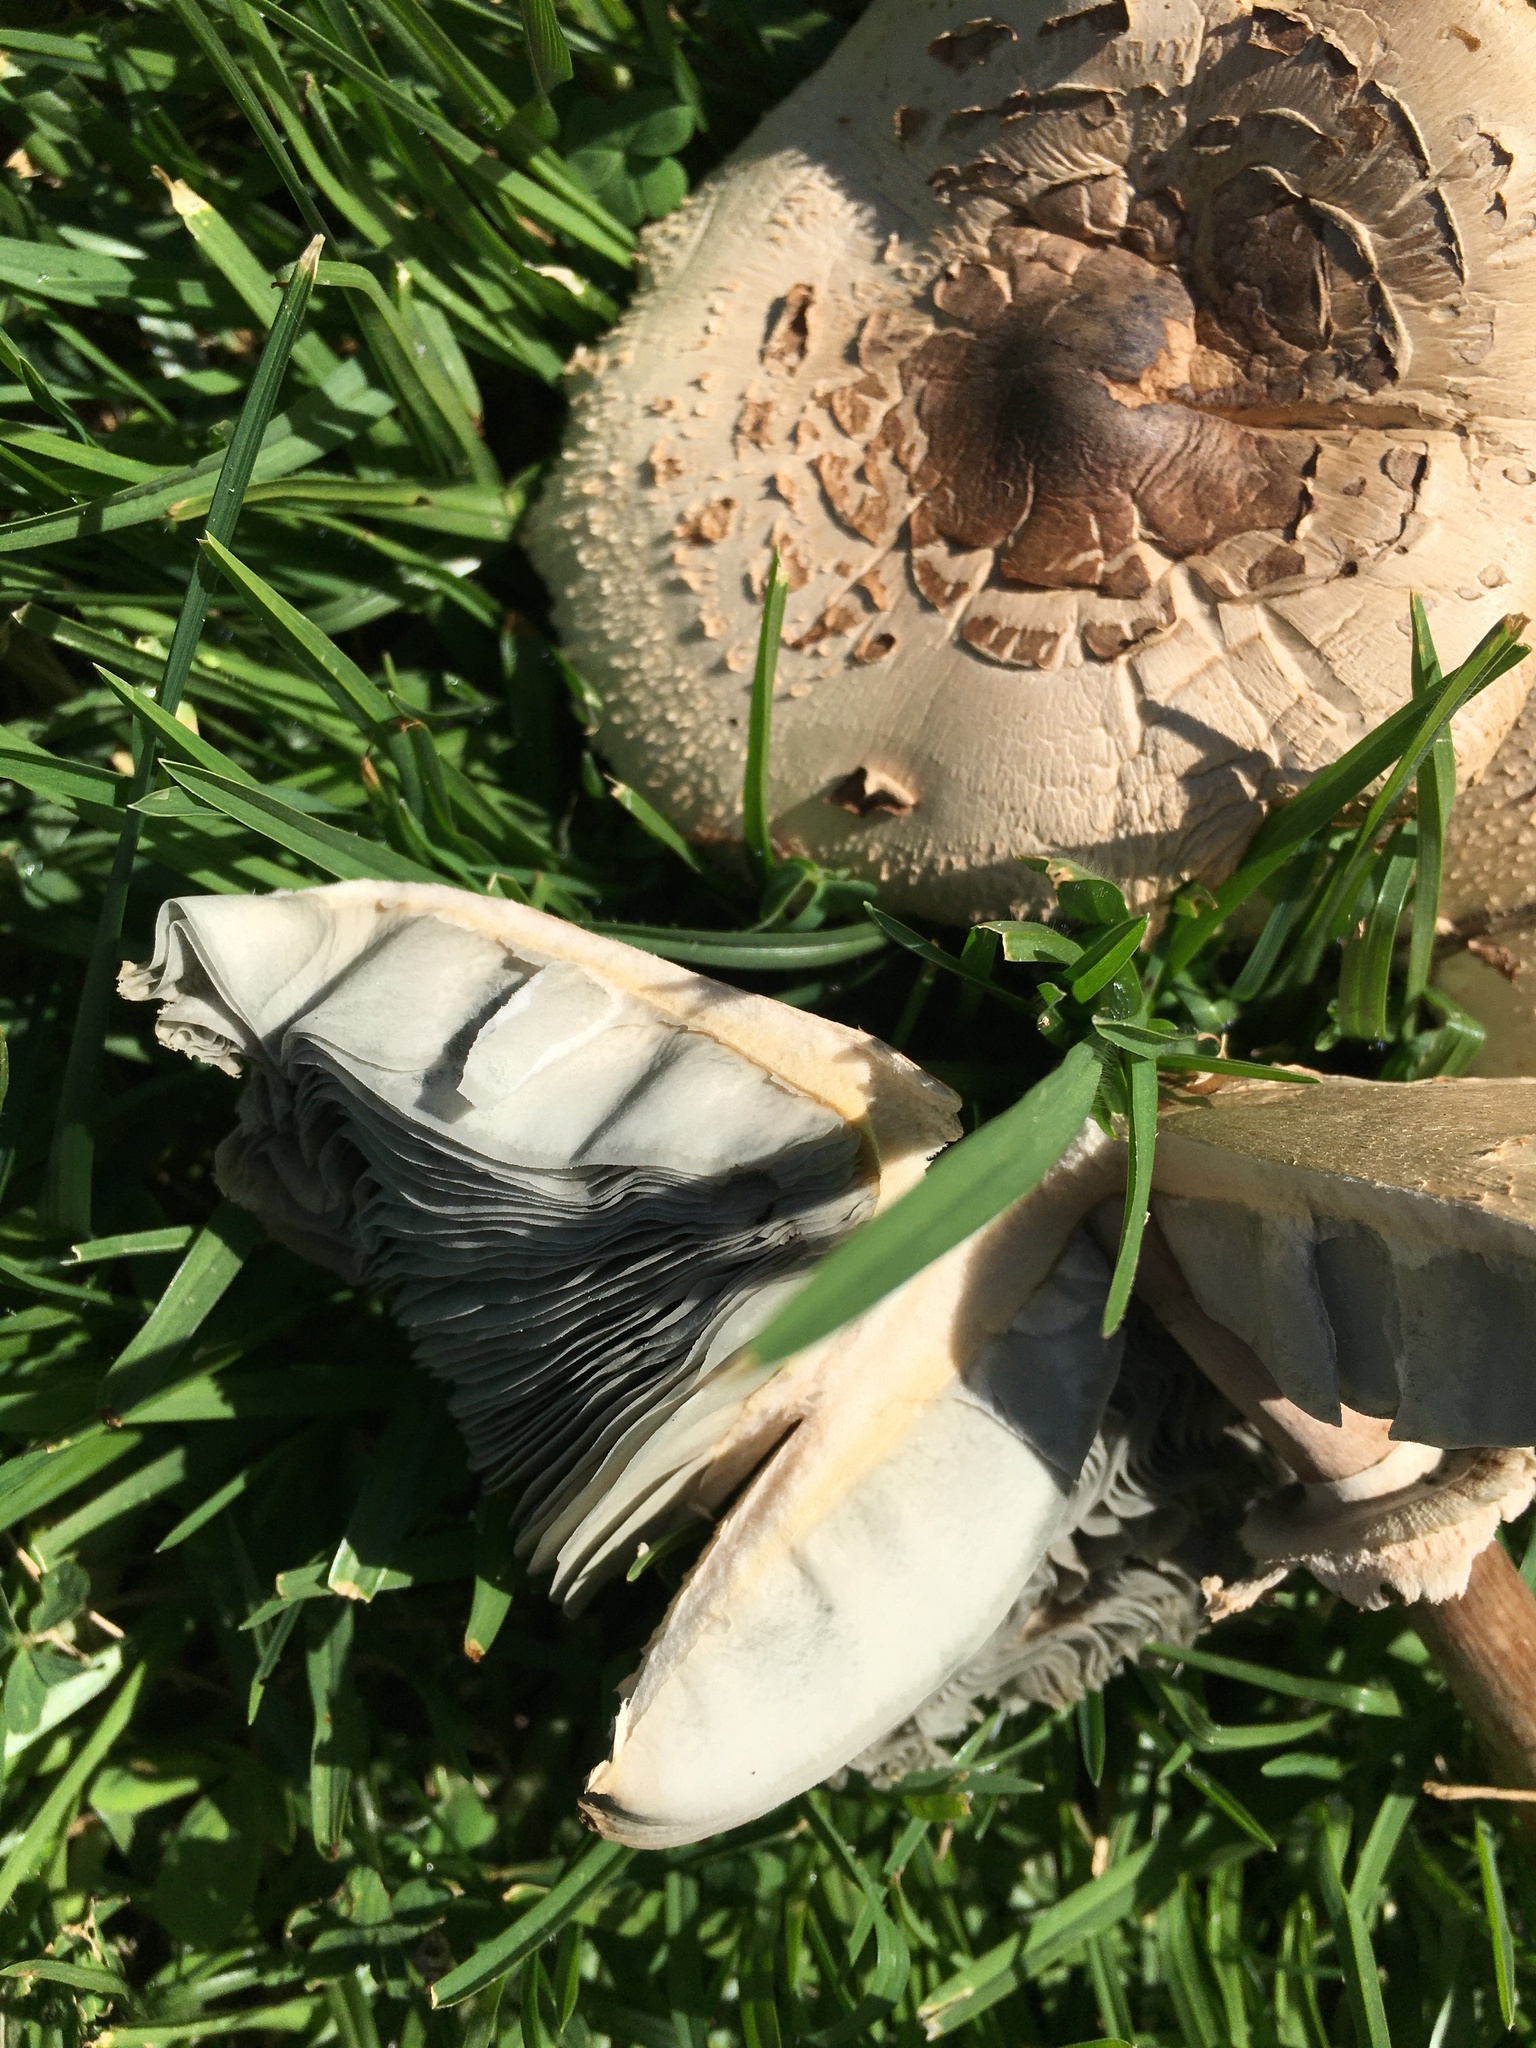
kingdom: Fungi
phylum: Basidiomycota
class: Agaricomycetes
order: Agaricales
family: Agaricaceae
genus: Chlorophyllum
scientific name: Chlorophyllum molybdites
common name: False parasol
